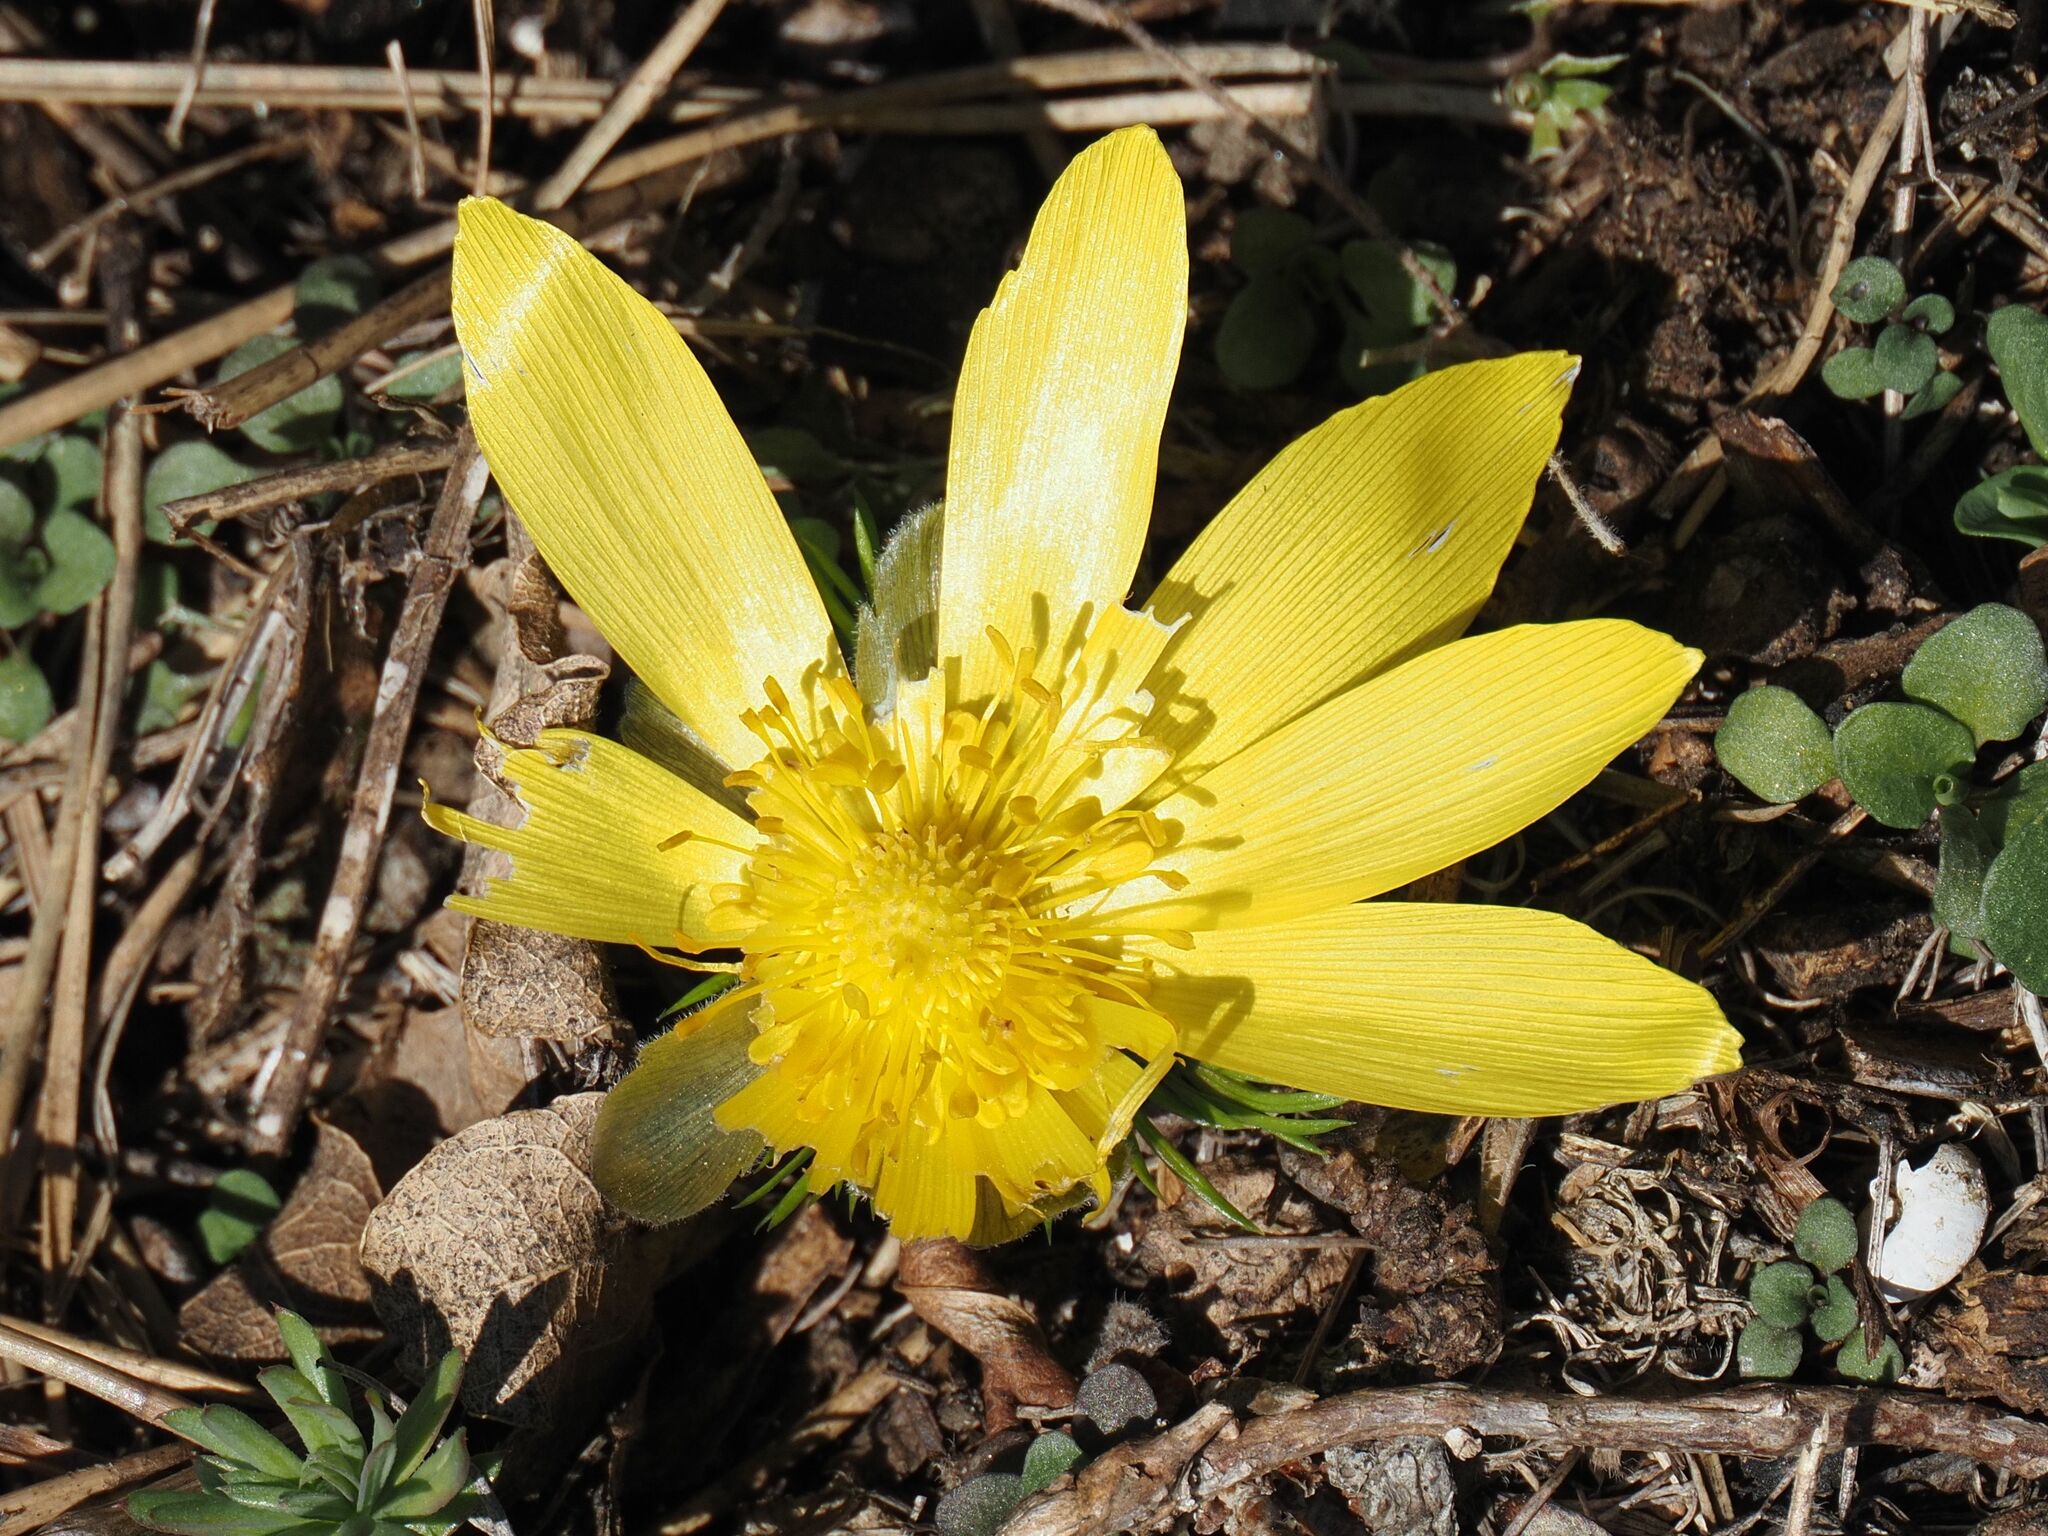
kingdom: Plantae
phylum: Tracheophyta
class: Magnoliopsida
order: Ranunculales
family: Ranunculaceae
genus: Adonis
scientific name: Adonis vernalis
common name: Yellow pheasants-eye
